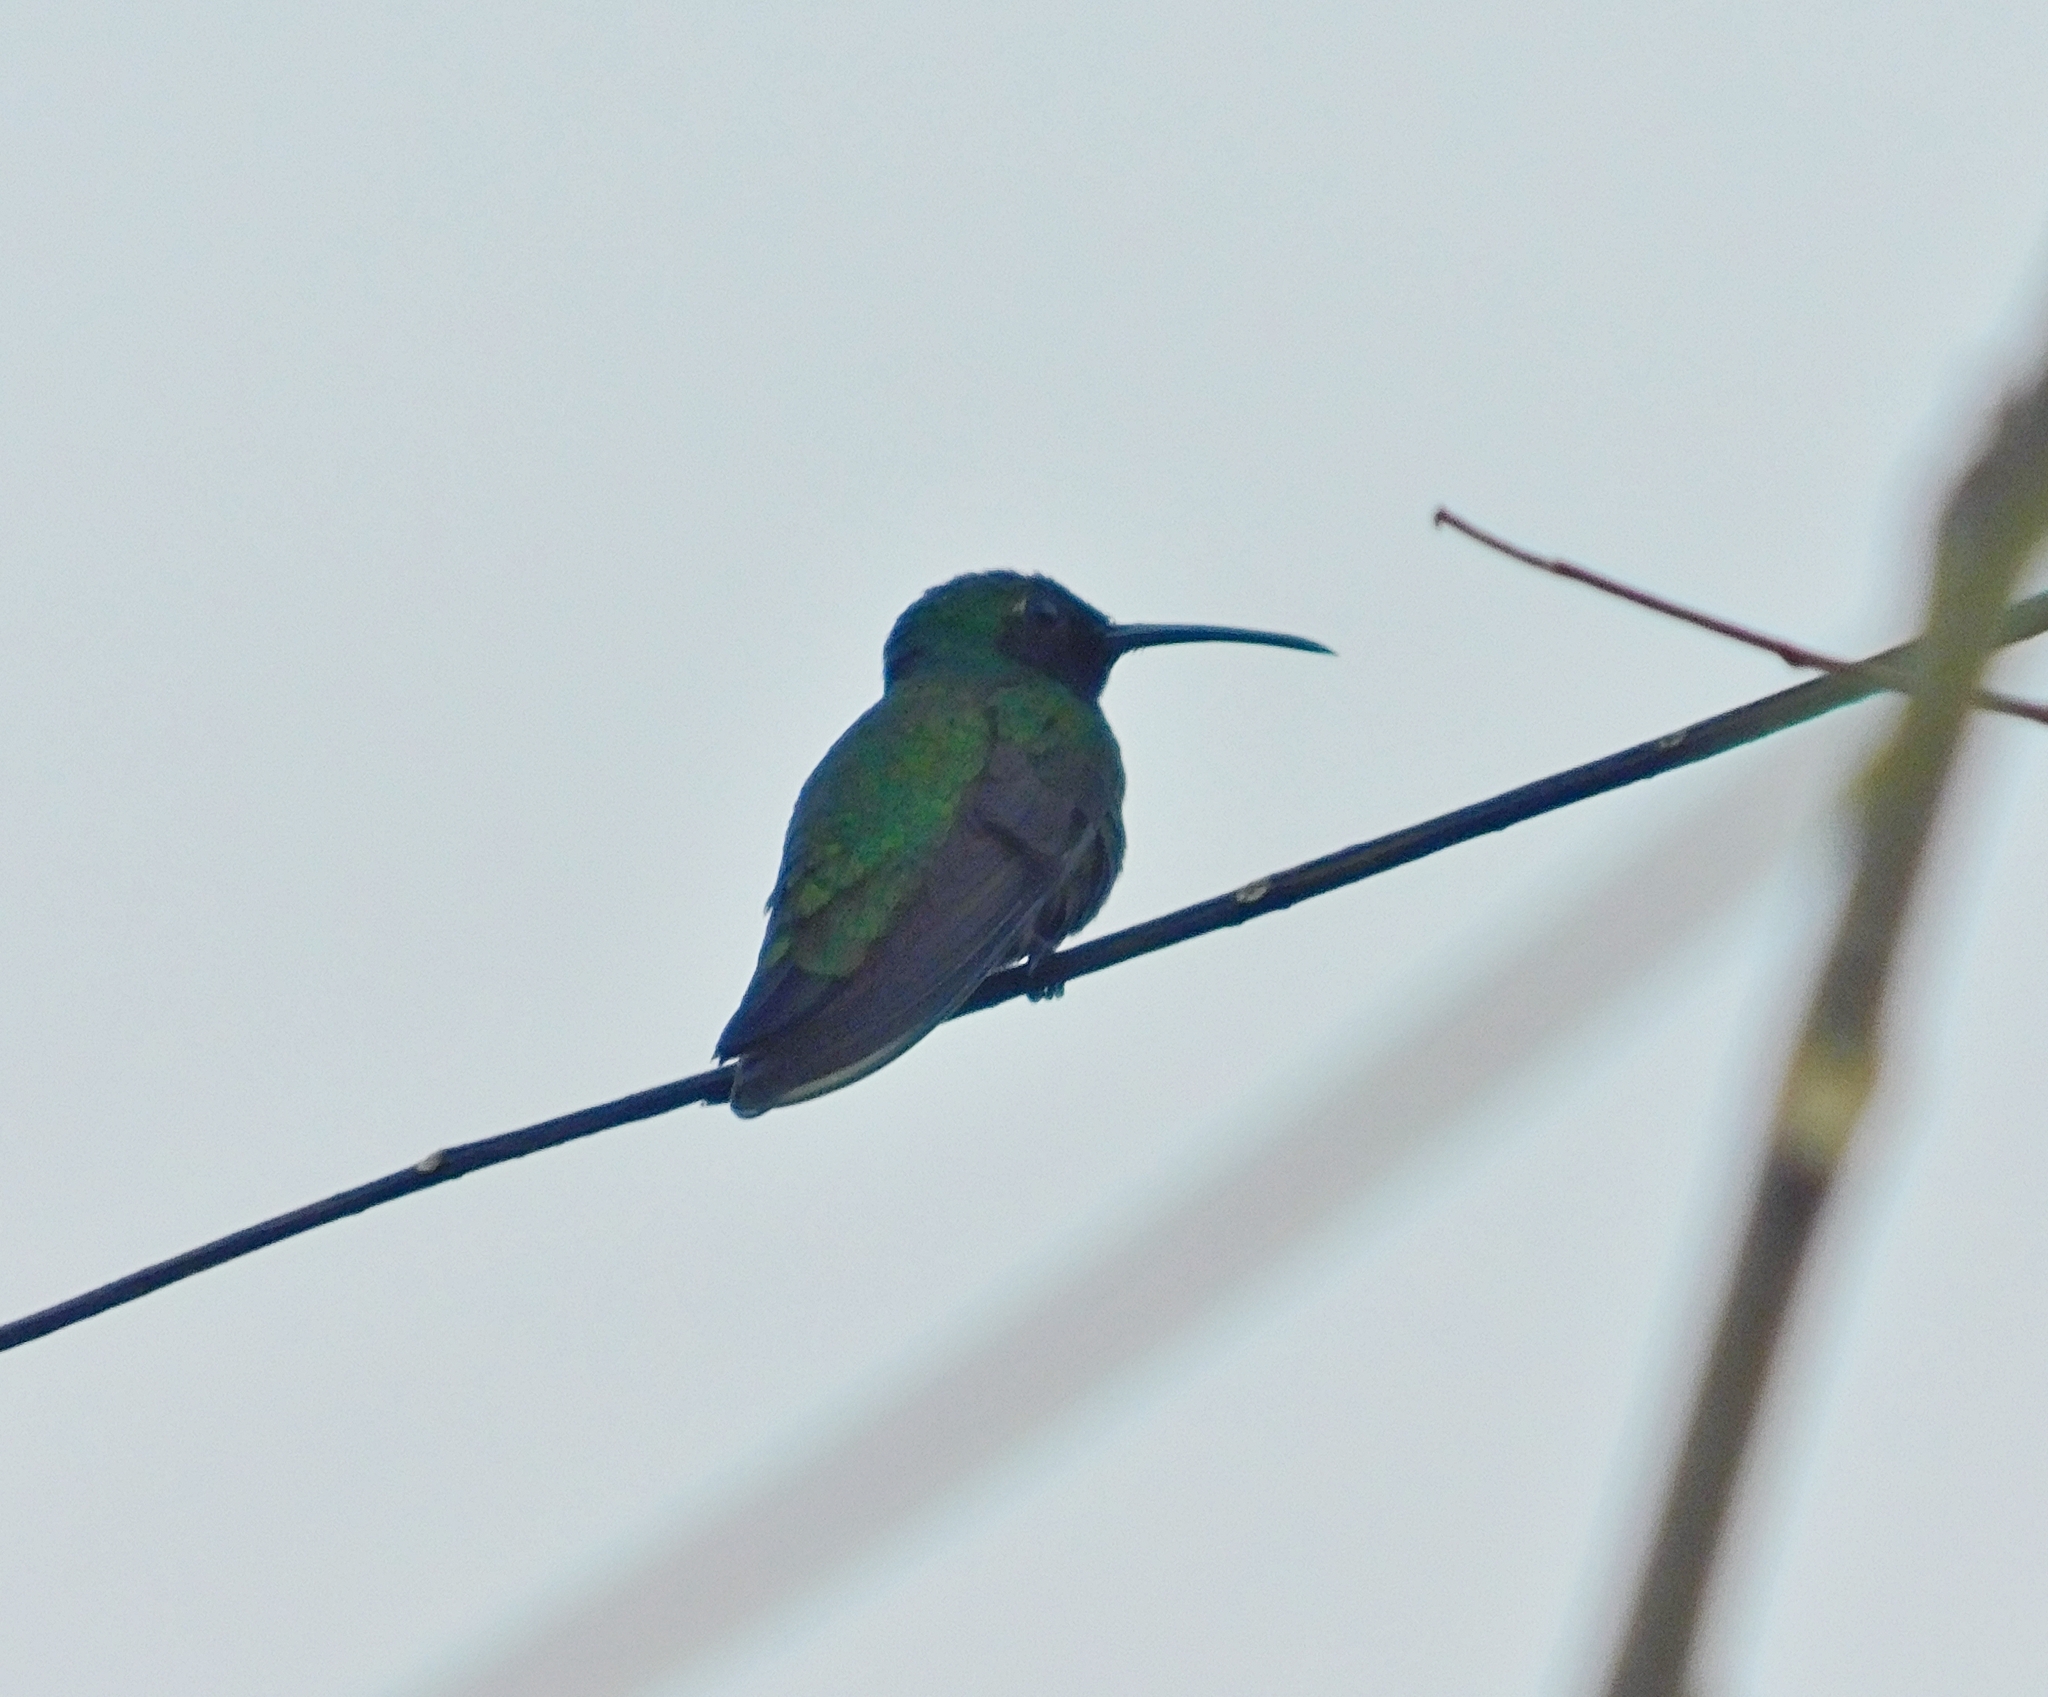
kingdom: Animalia
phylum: Chordata
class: Aves
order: Apodiformes
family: Trochilidae
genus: Anthracothorax
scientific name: Anthracothorax prevostii
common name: Green-breasted mango
